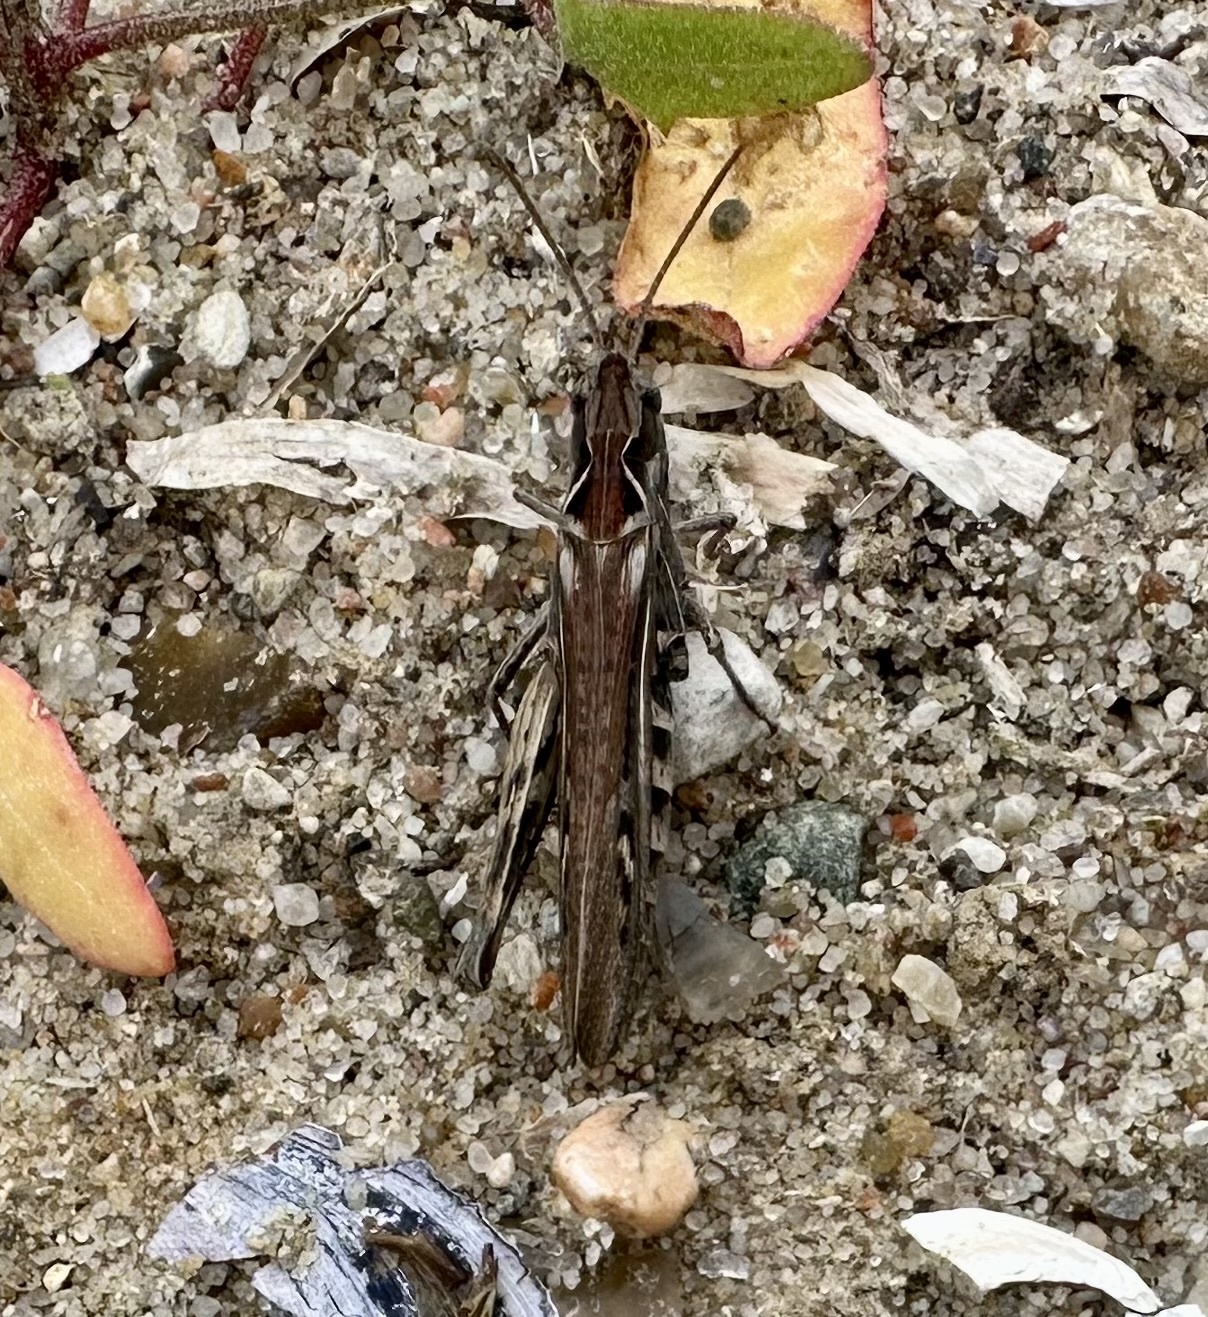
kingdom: Animalia
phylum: Arthropoda
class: Insecta
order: Orthoptera
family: Acrididae
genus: Myrmeleotettix
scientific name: Myrmeleotettix maculatus
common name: Mottled grasshopper
